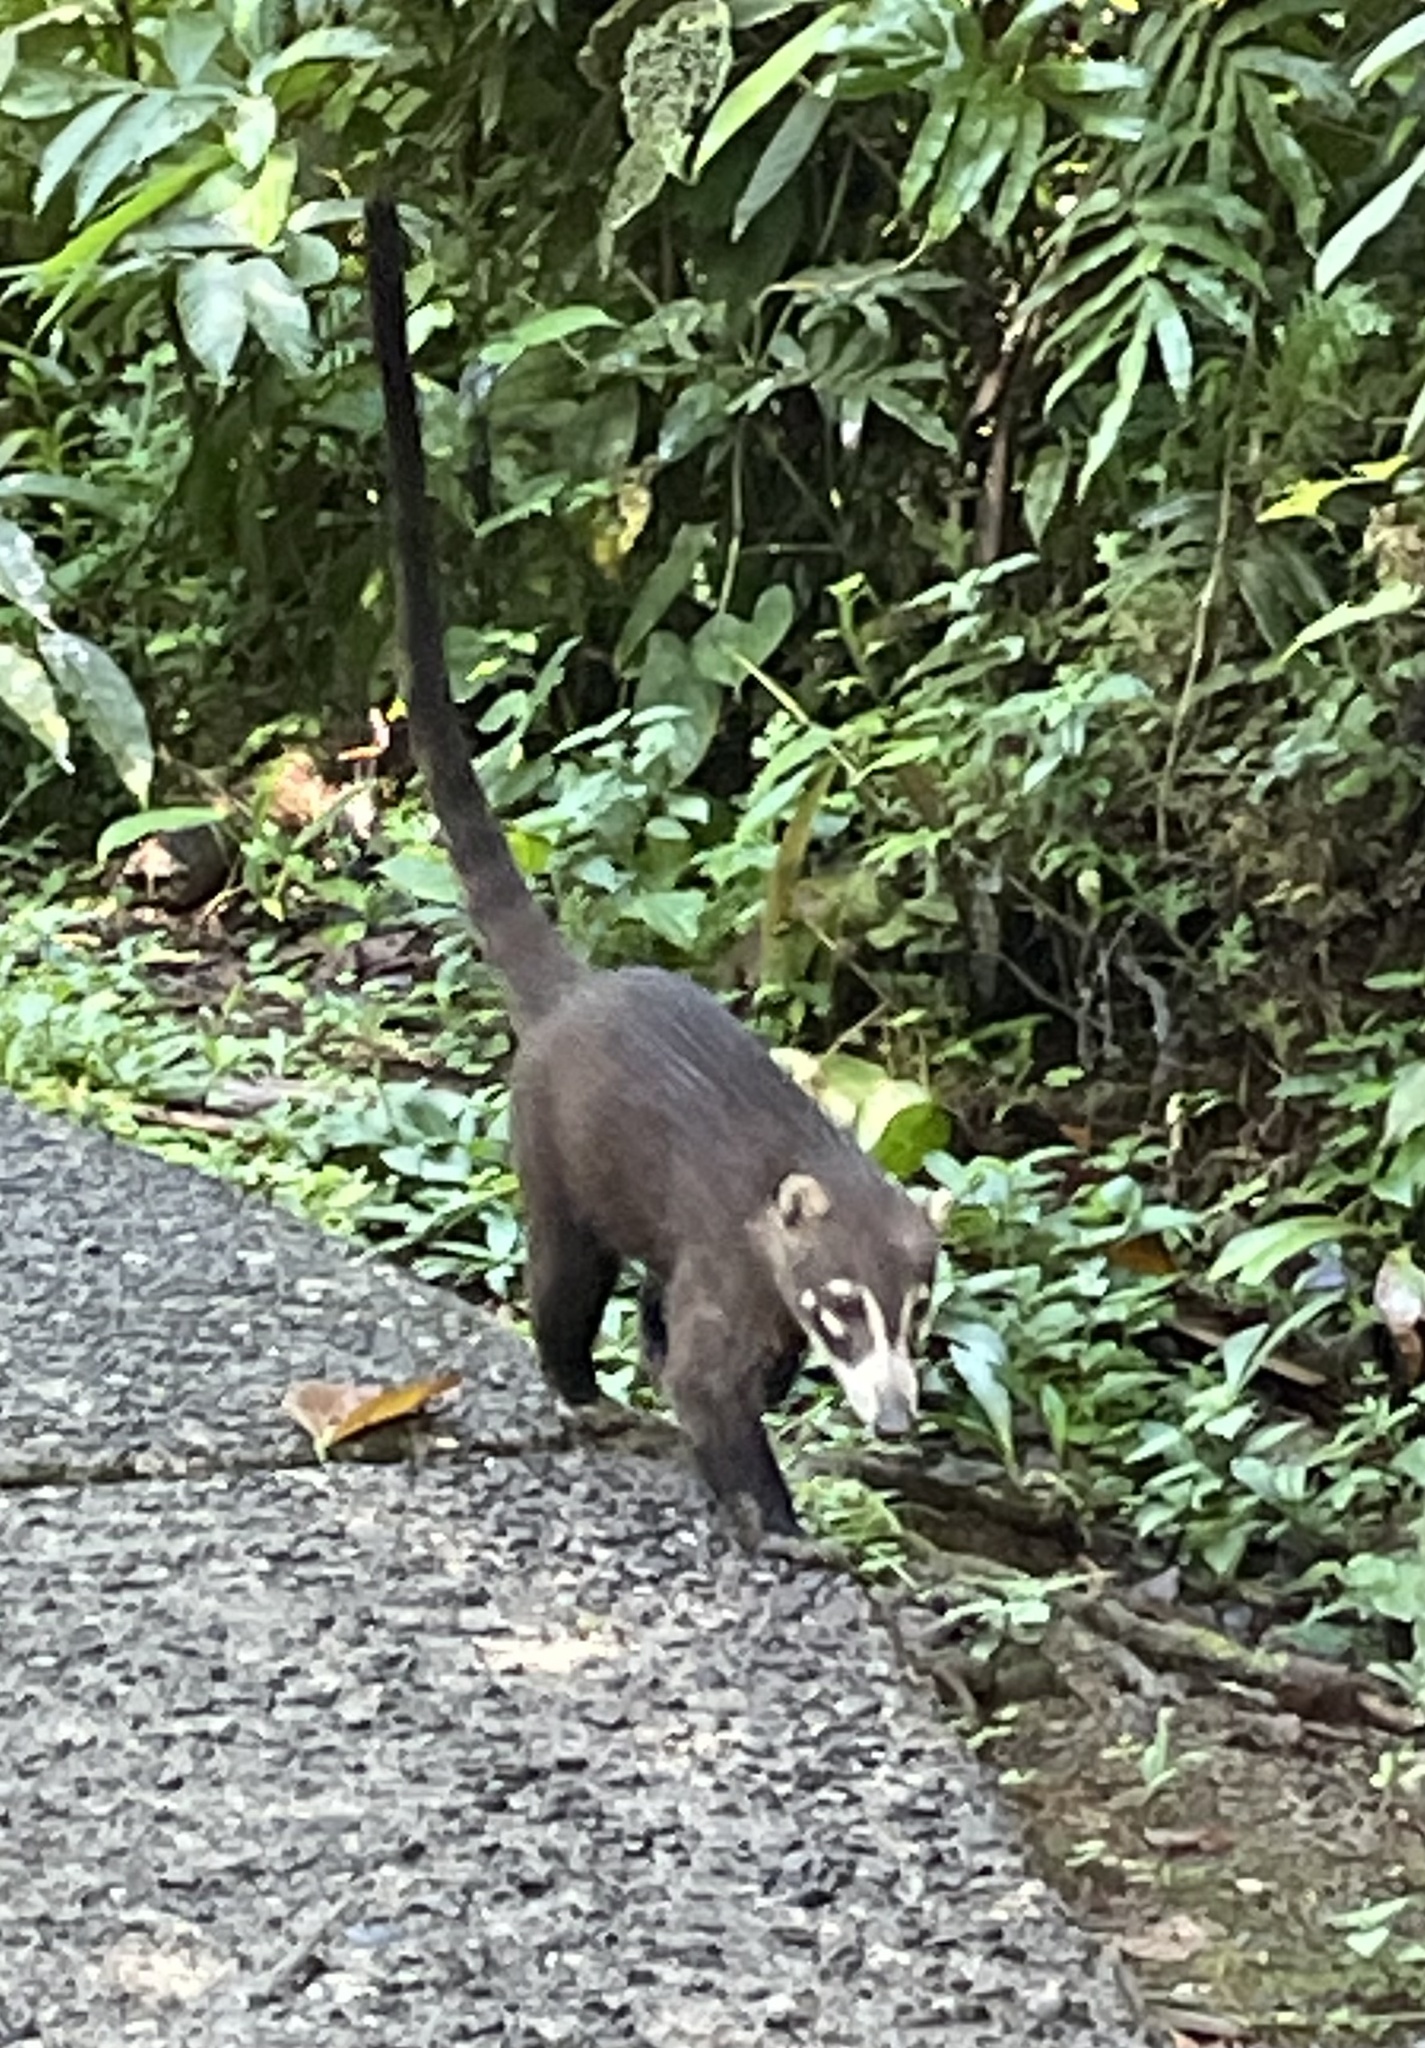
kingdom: Animalia
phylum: Chordata
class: Mammalia
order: Carnivora
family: Procyonidae
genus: Nasua
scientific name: Nasua narica
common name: White-nosed coati
